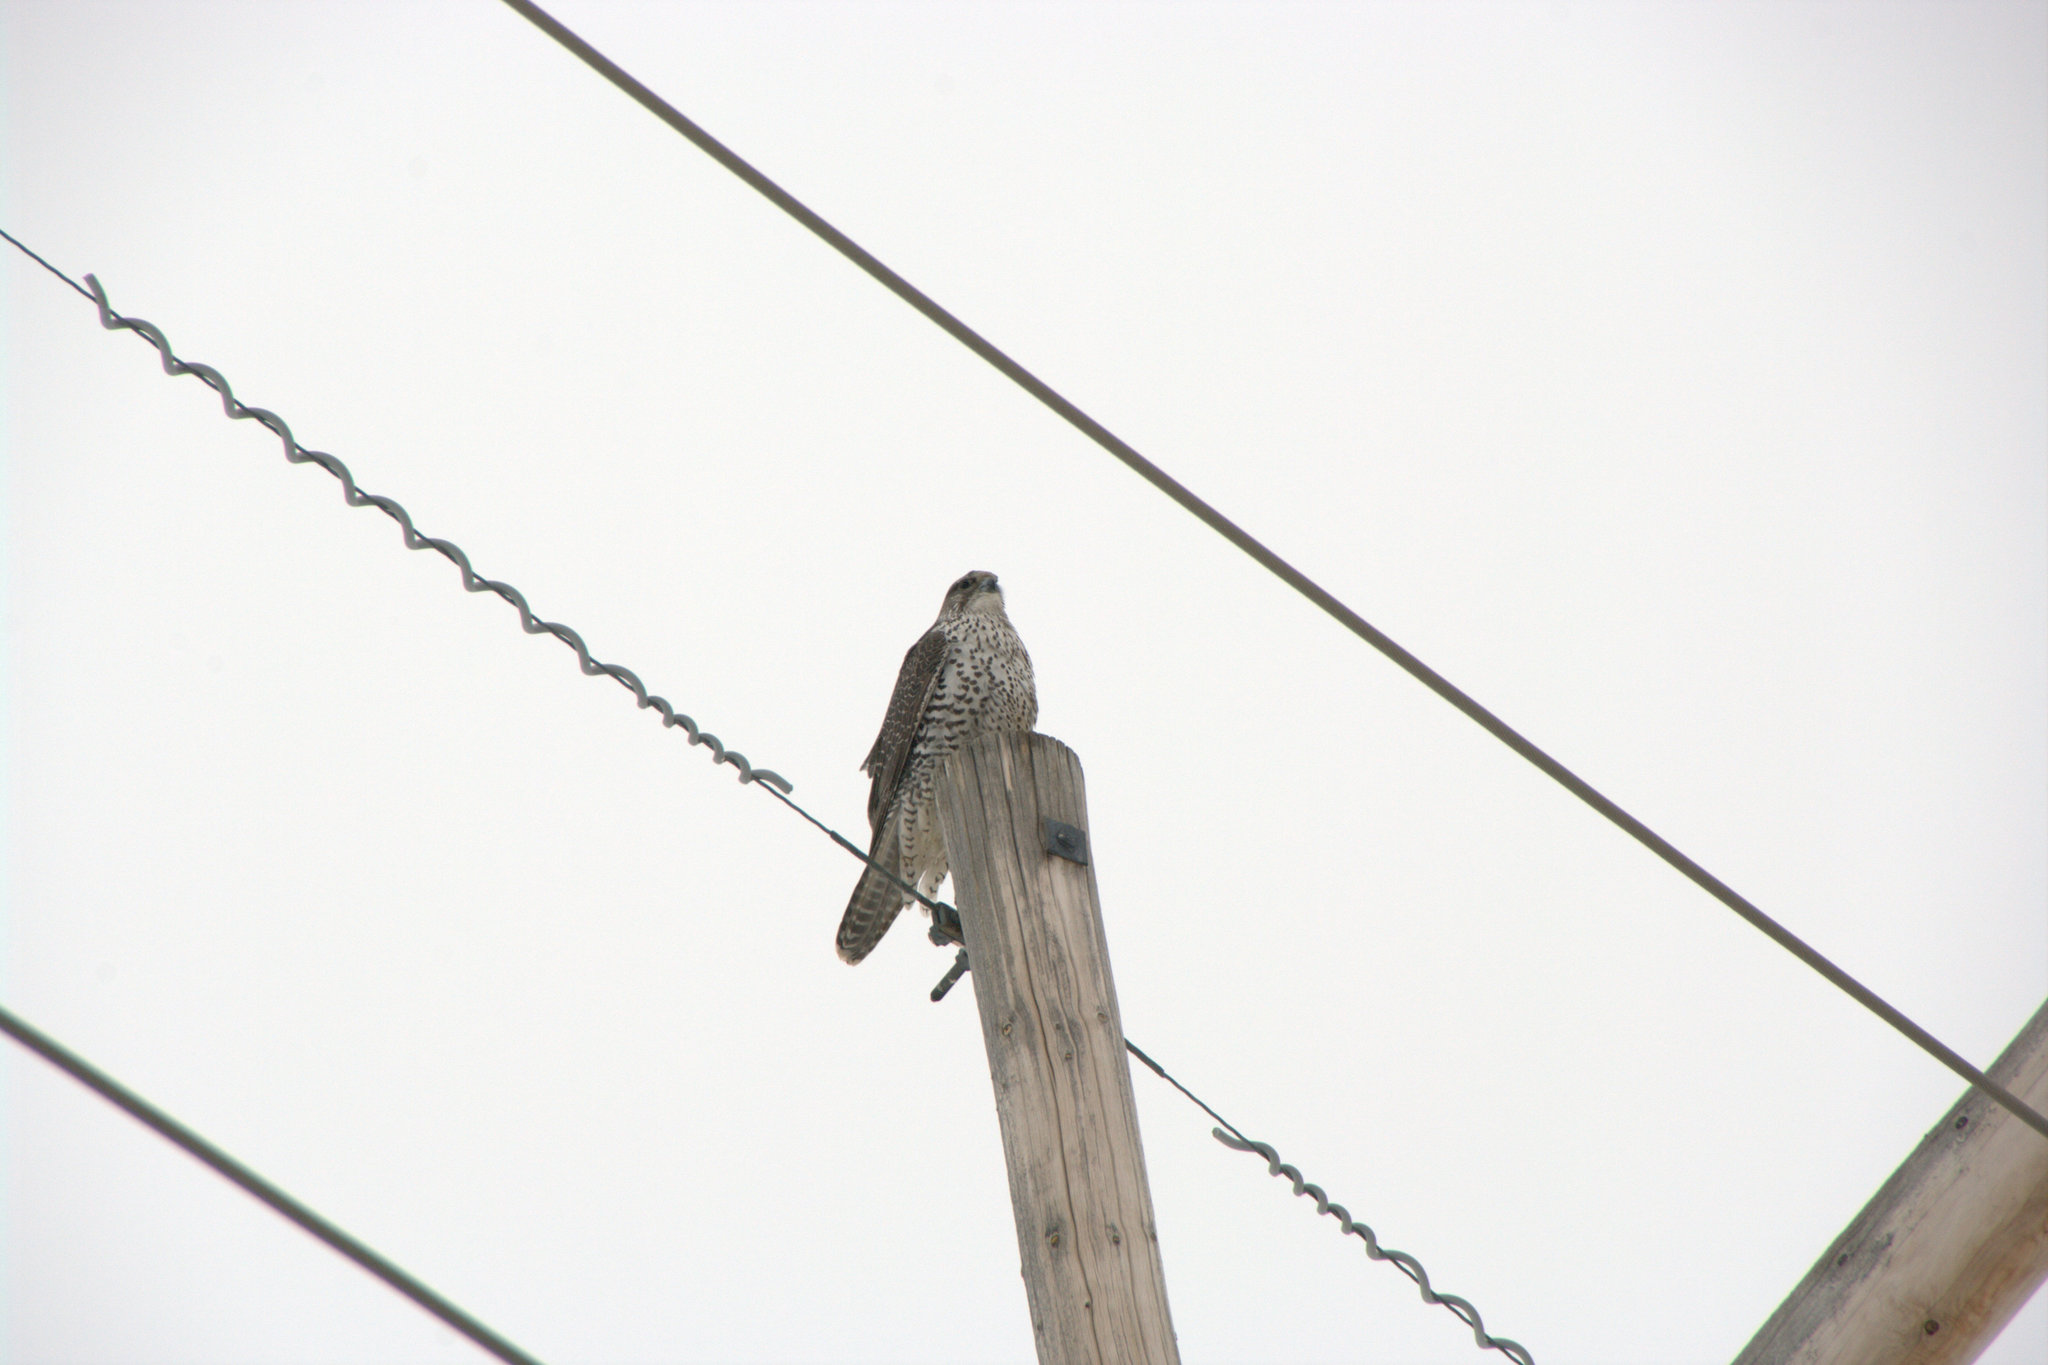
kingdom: Animalia
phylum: Chordata
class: Aves
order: Falconiformes
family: Falconidae
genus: Falco
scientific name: Falco rusticolus
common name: Gyrfalcon
